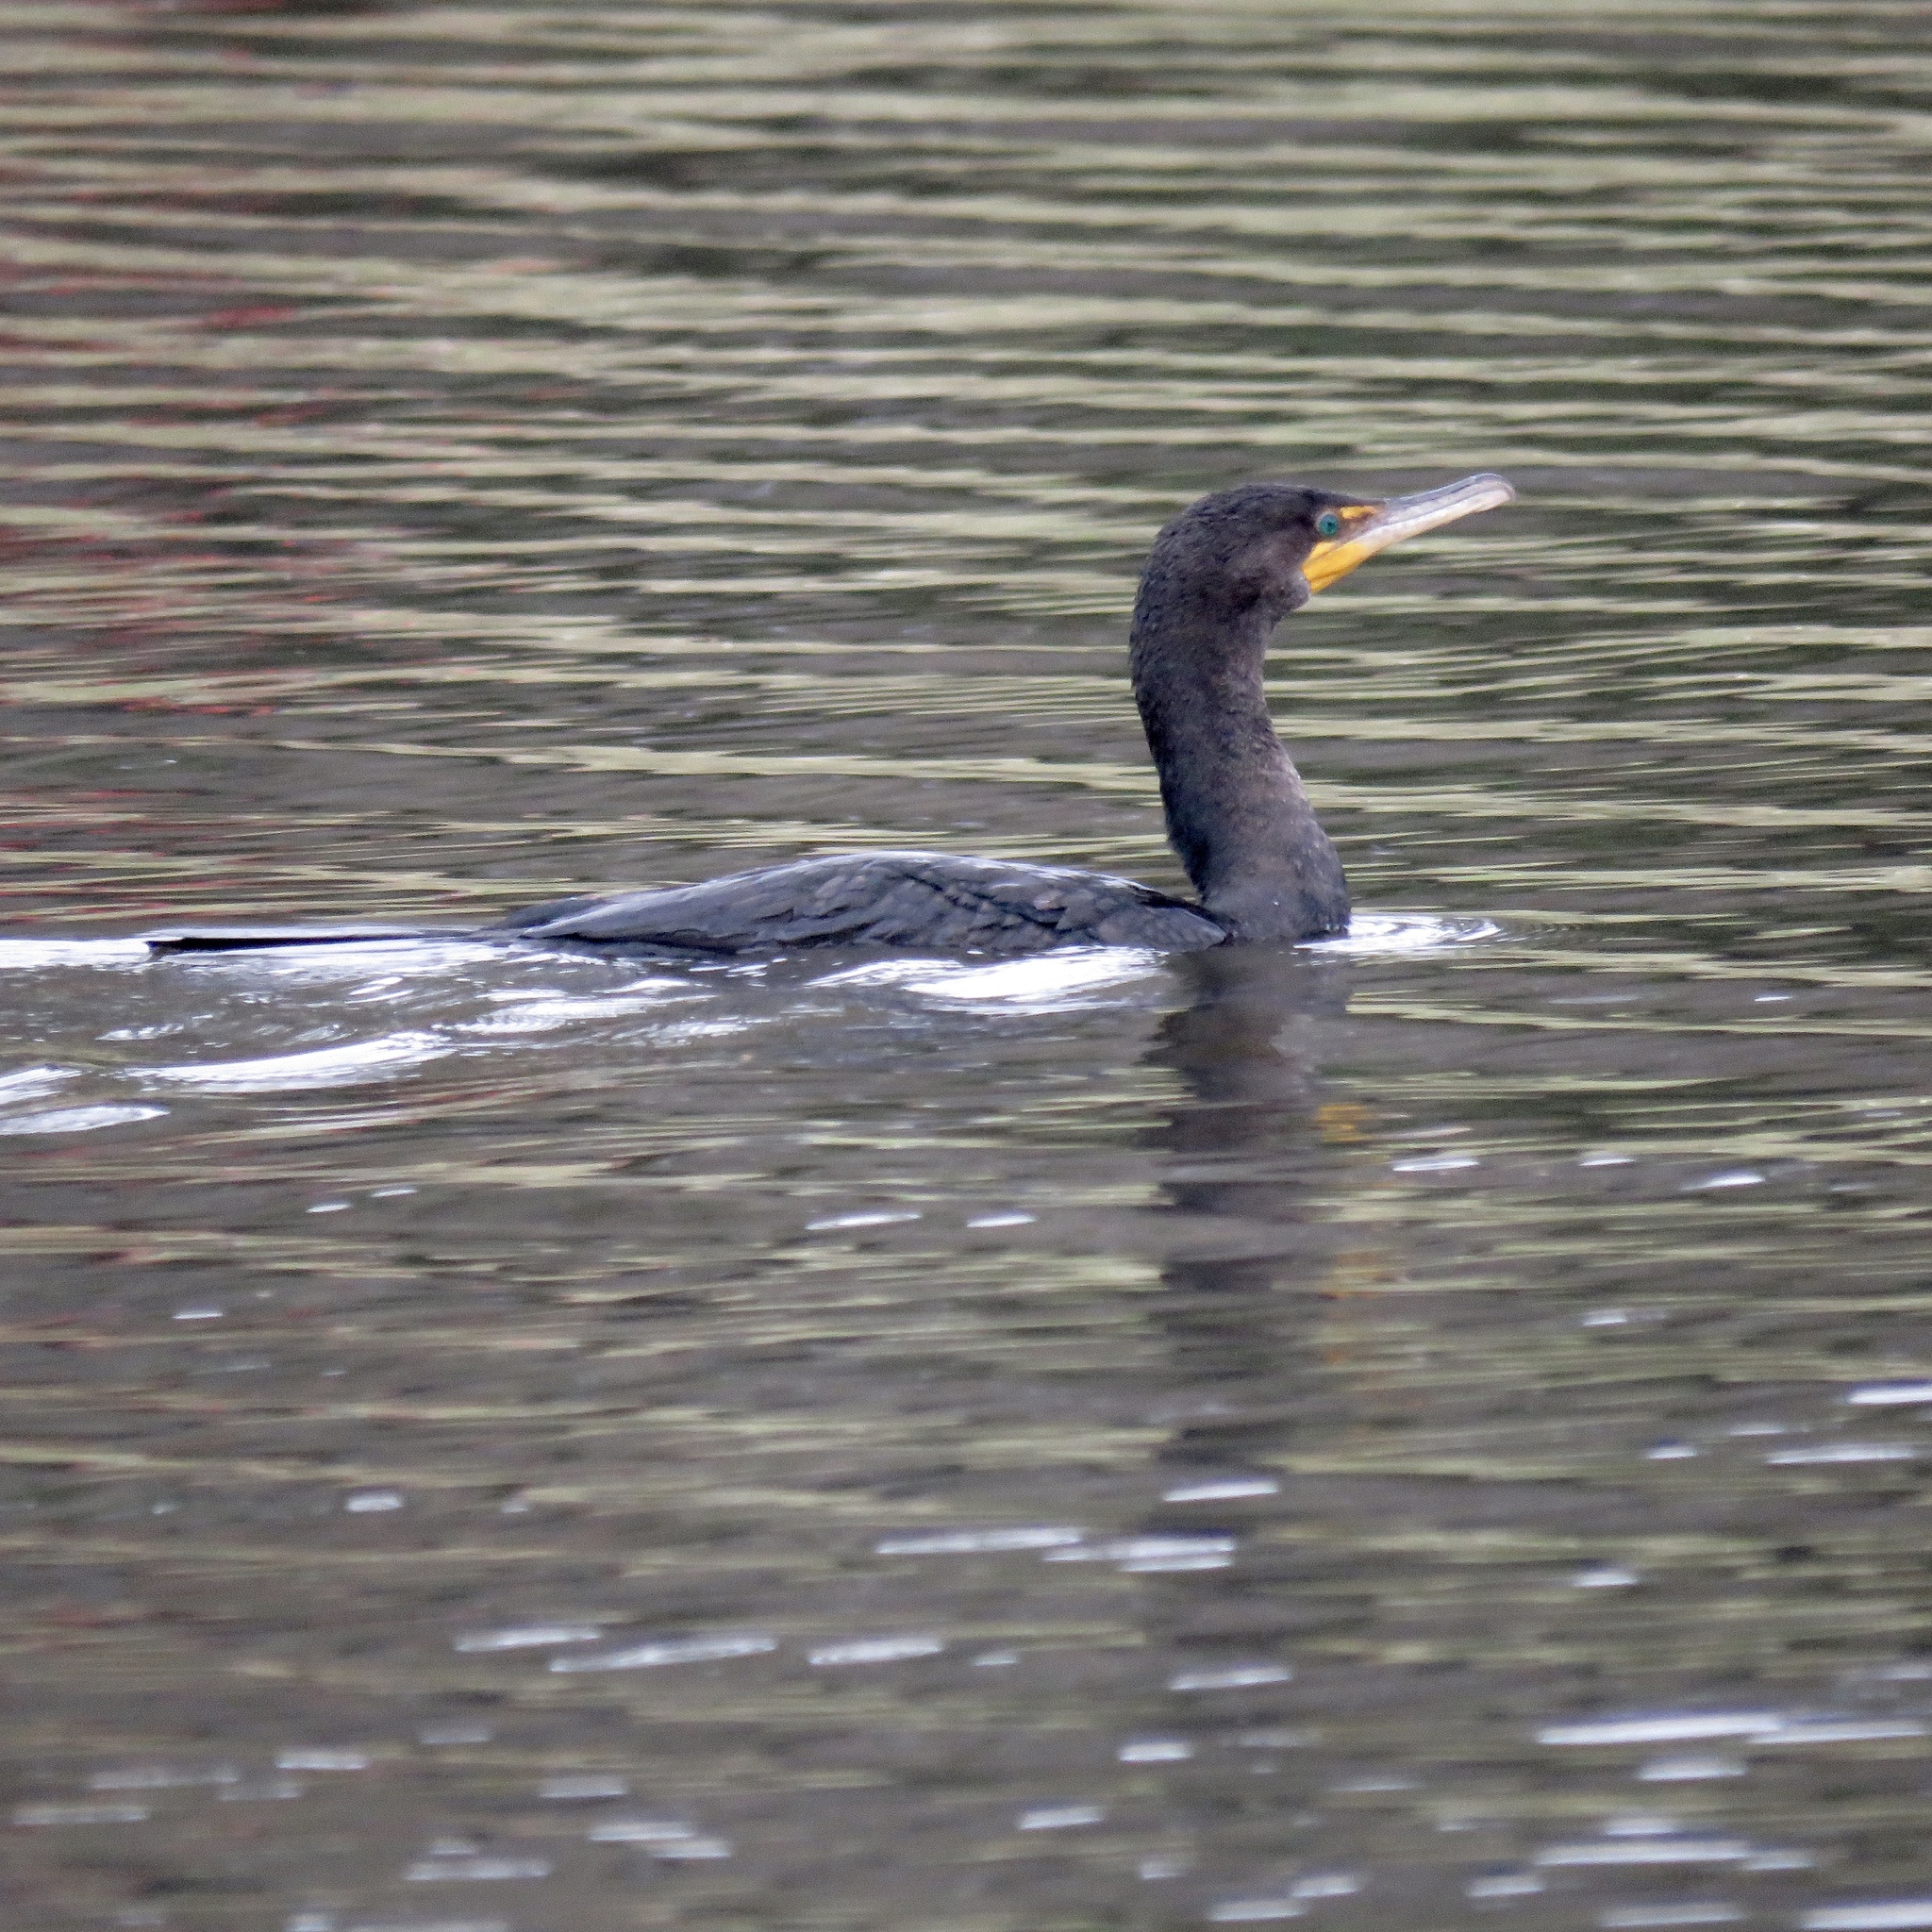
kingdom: Animalia
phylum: Chordata
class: Aves
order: Suliformes
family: Phalacrocoracidae
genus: Phalacrocorax
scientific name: Phalacrocorax auritus
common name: Double-crested cormorant
